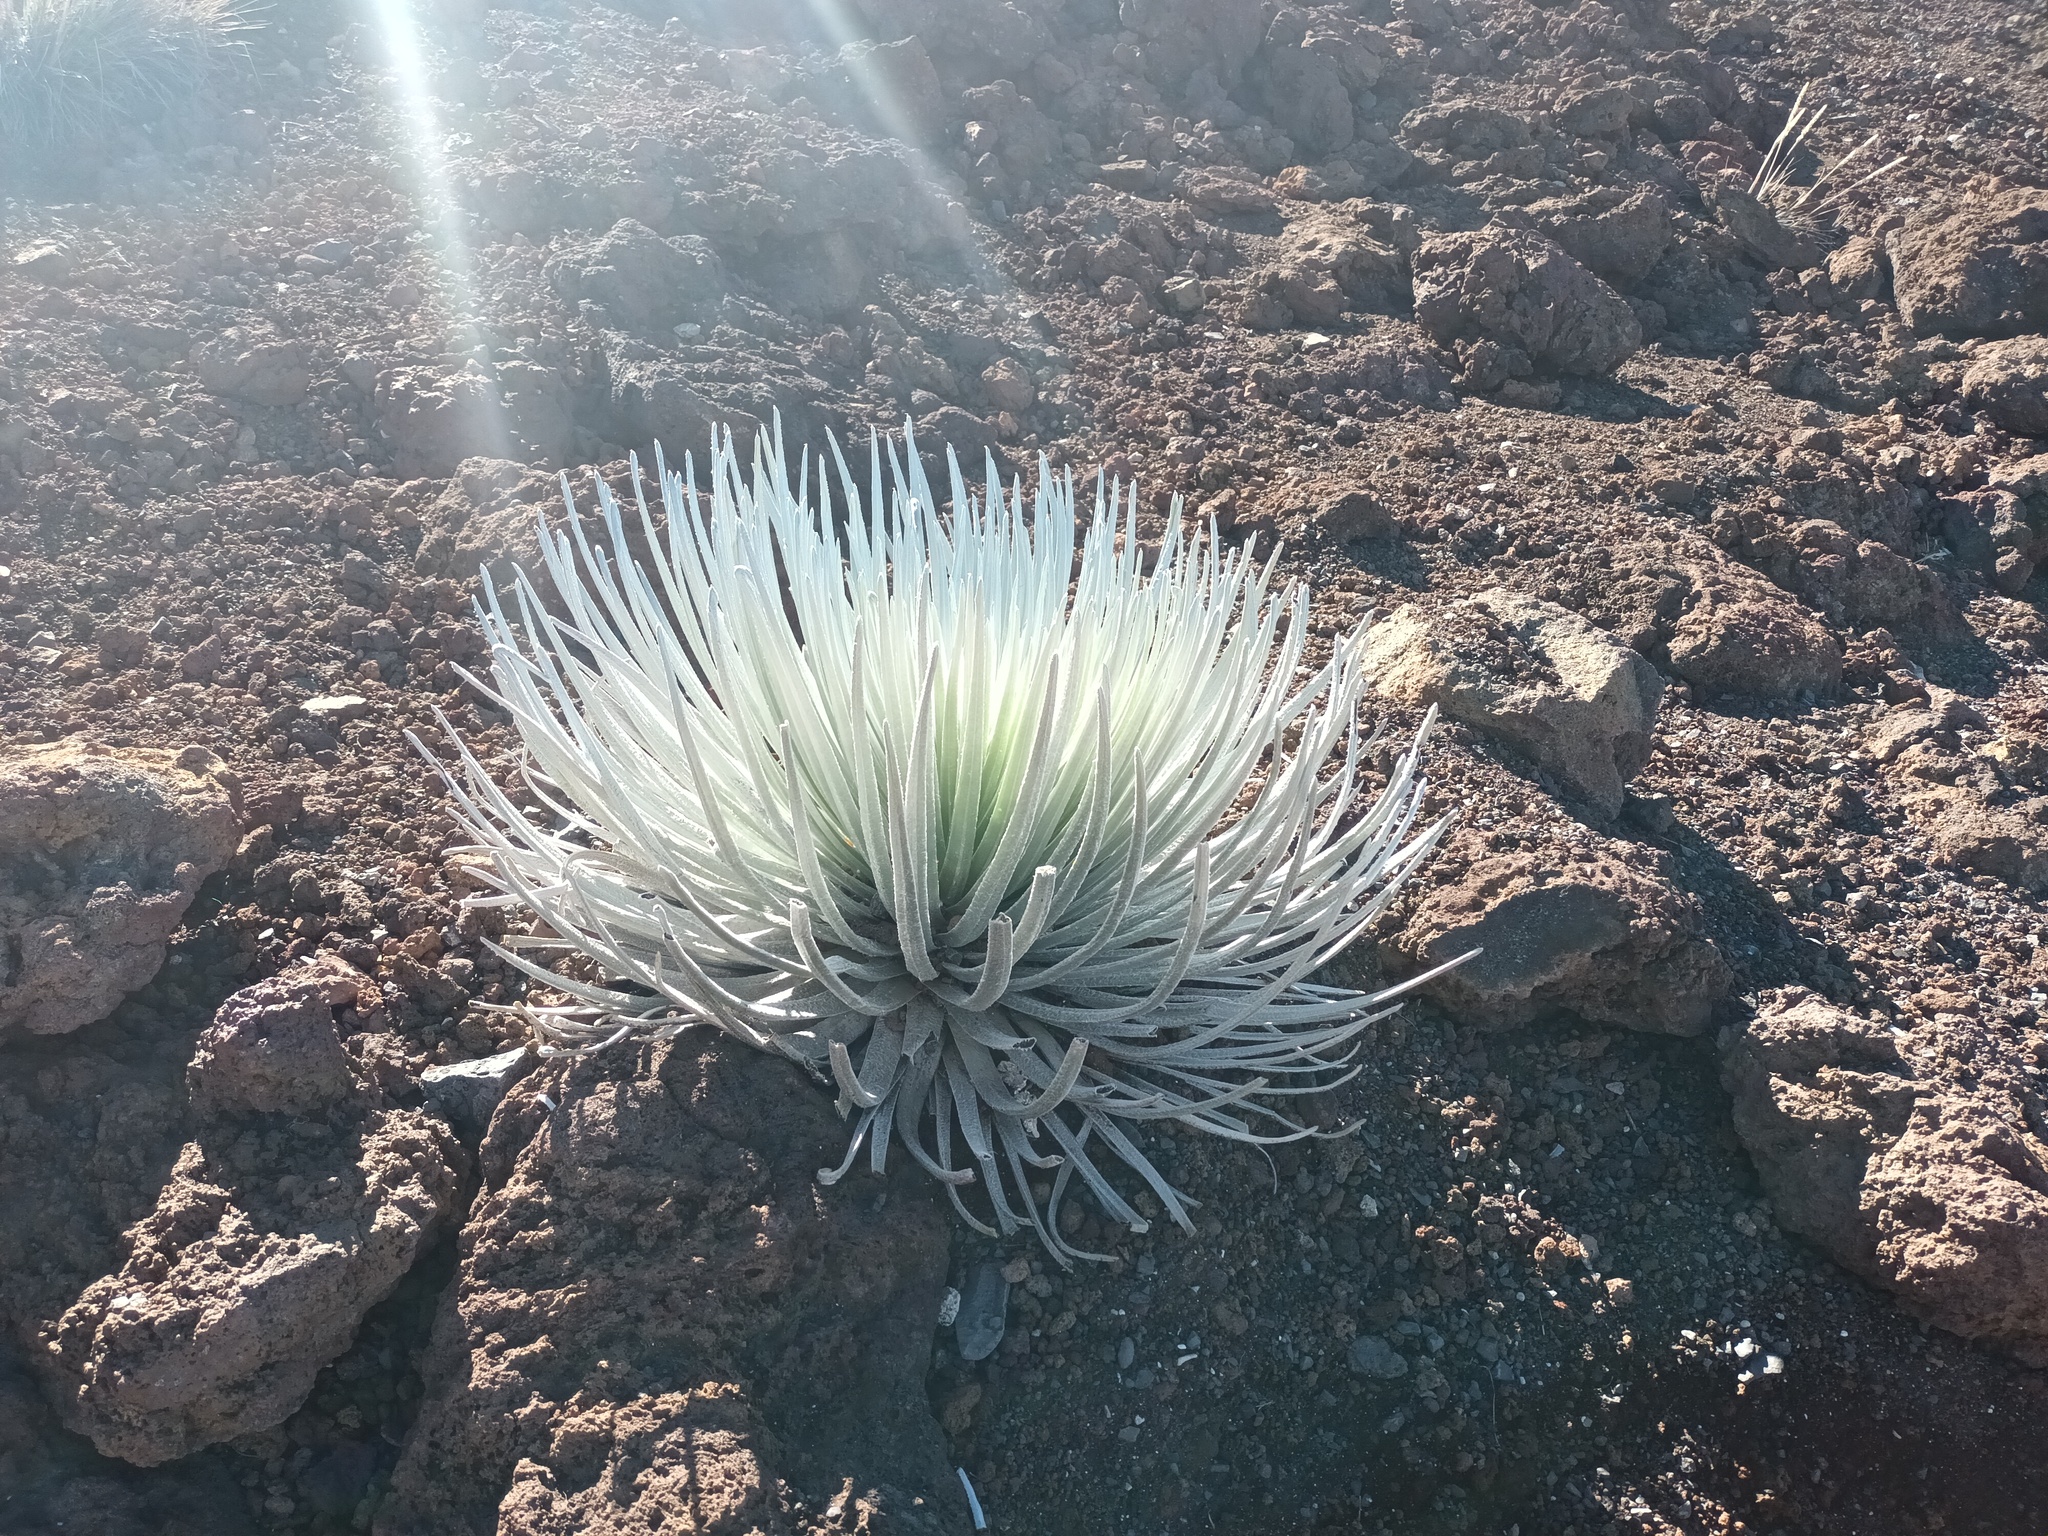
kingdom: Plantae
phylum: Tracheophyta
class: Magnoliopsida
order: Asterales
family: Asteraceae
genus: Argyroxiphium
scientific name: Argyroxiphium sandwicense
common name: Silversword
